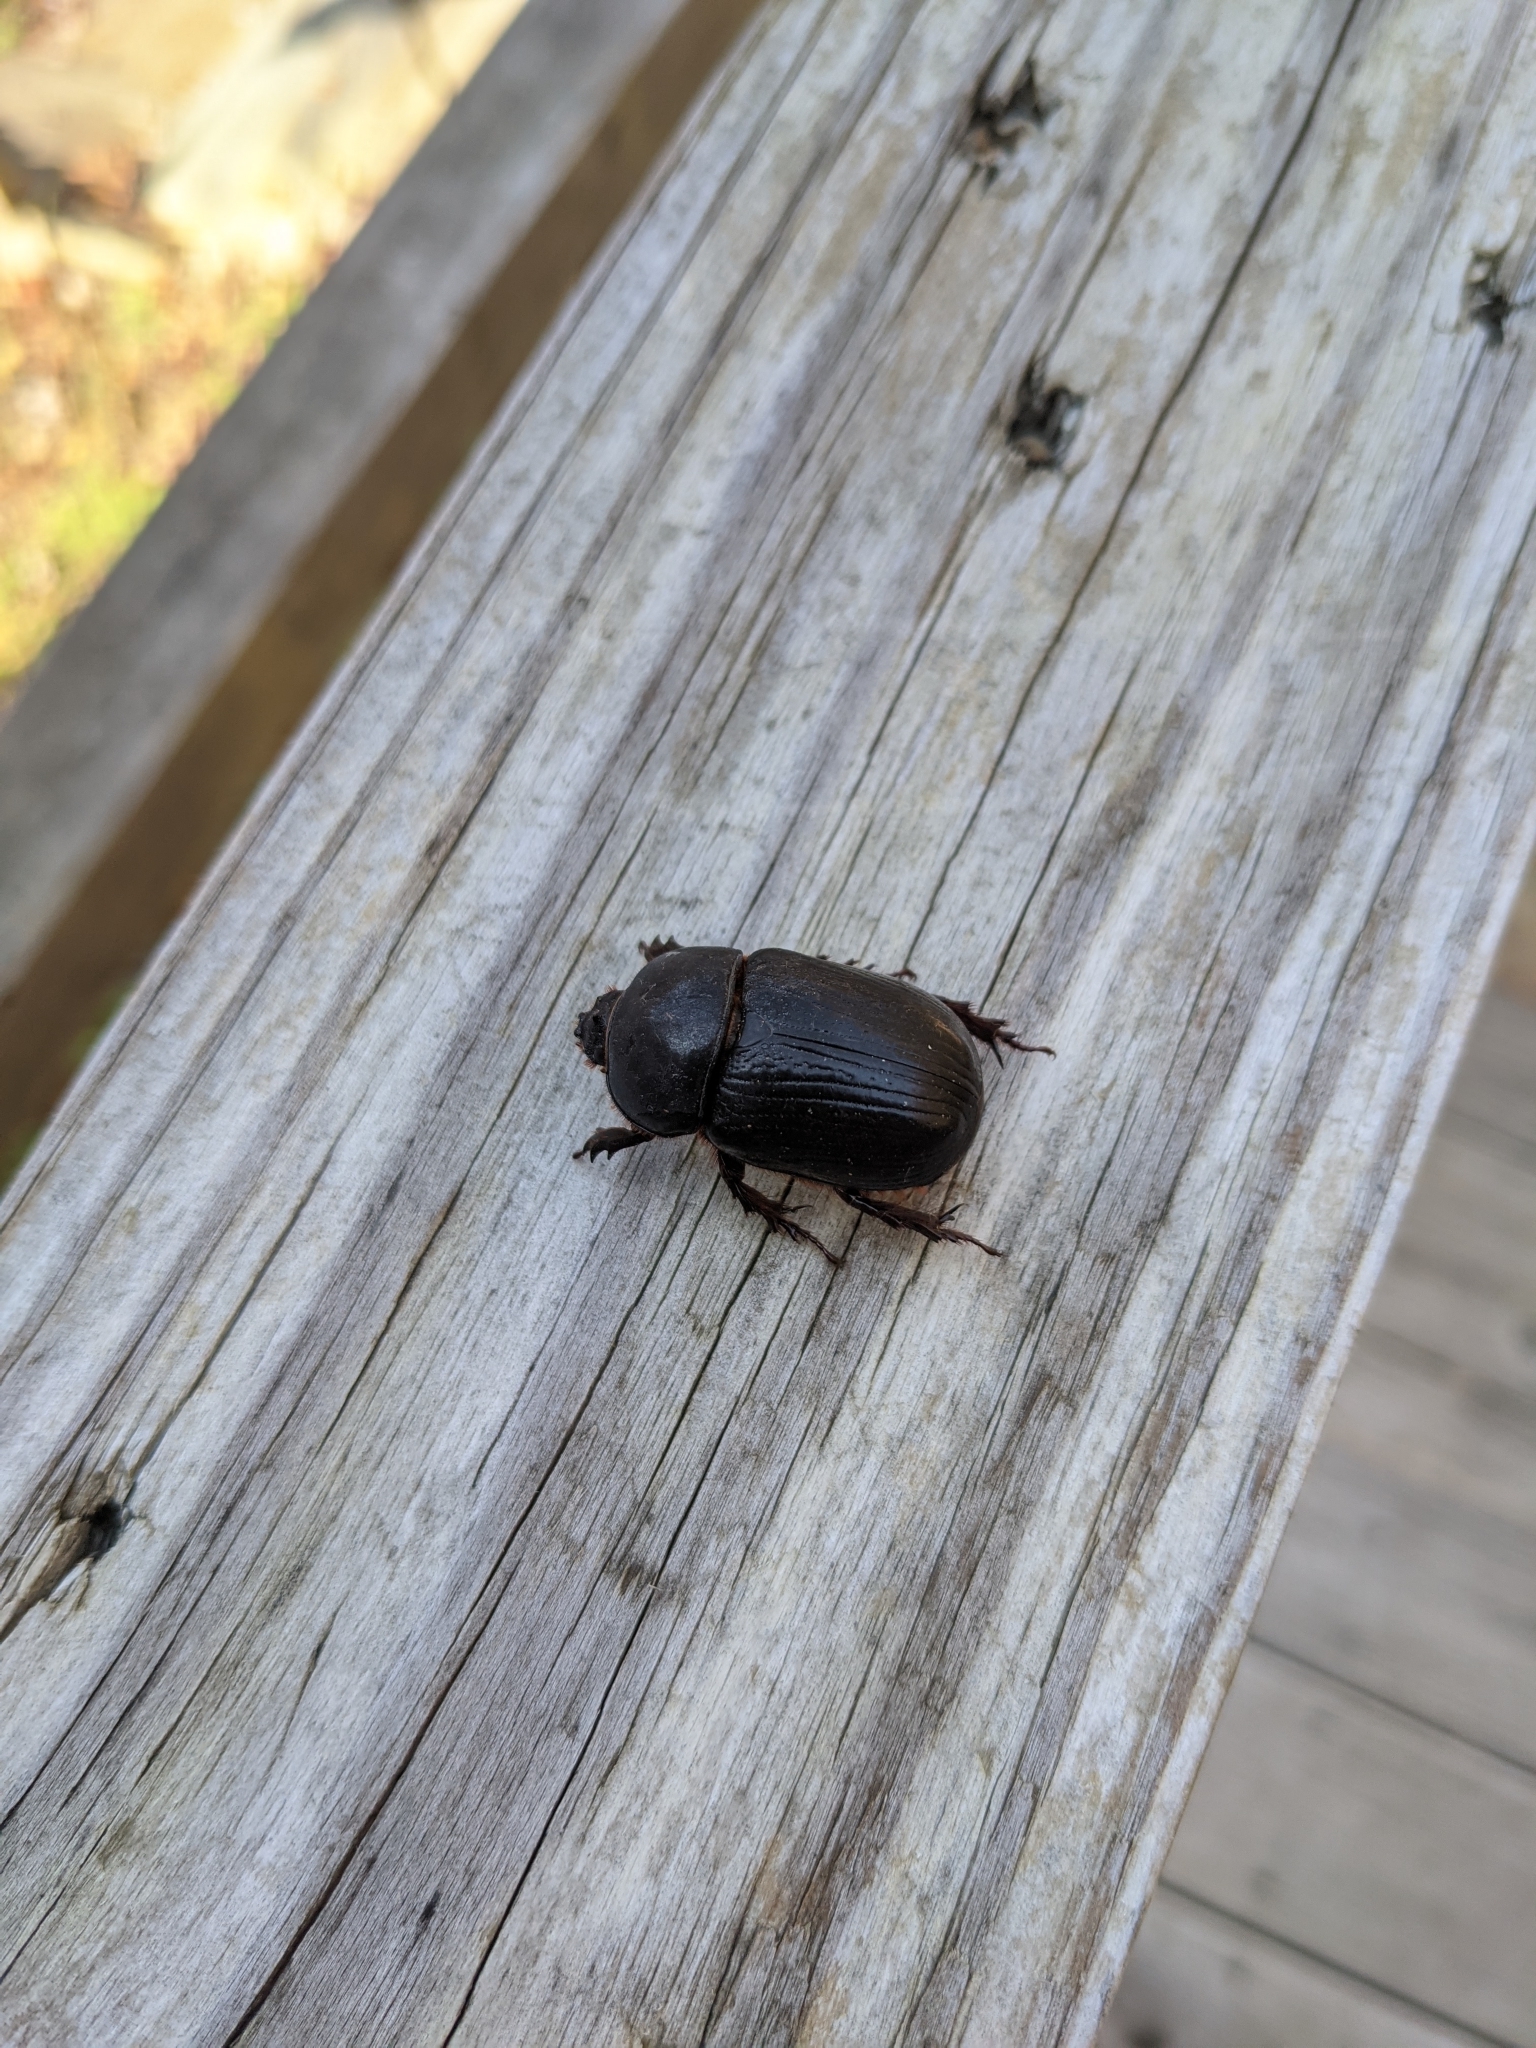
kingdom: Animalia
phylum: Arthropoda
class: Insecta
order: Coleoptera
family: Scarabaeidae
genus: Xyloryctes
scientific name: Xyloryctes jamaicensis
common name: Eastern rhinoceros beetle
